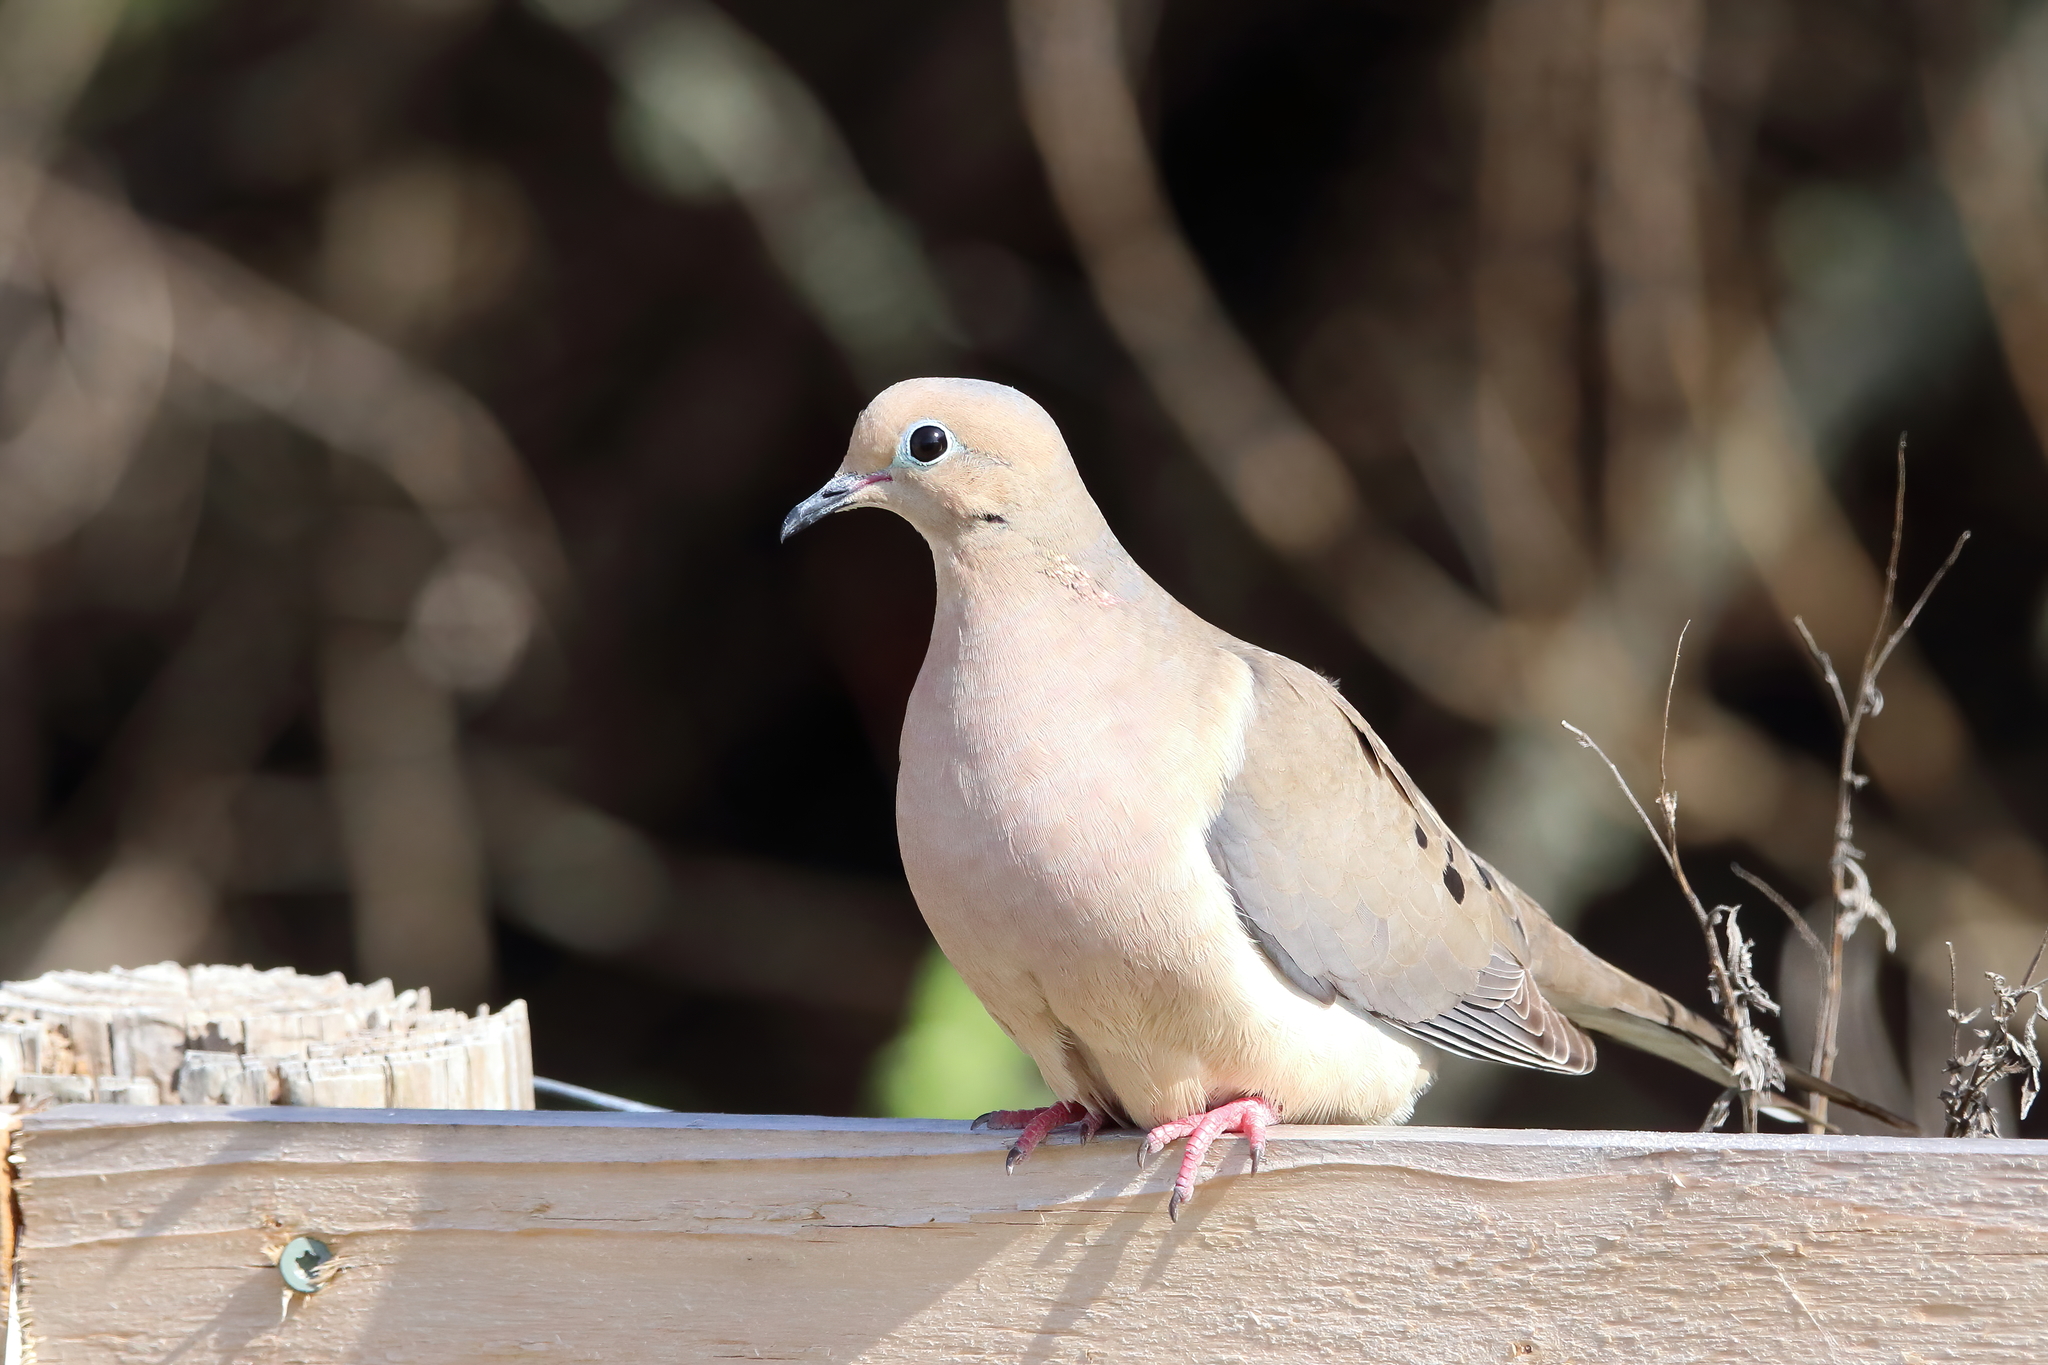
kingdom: Animalia
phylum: Chordata
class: Aves
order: Columbiformes
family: Columbidae
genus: Zenaida
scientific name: Zenaida macroura
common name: Mourning dove
